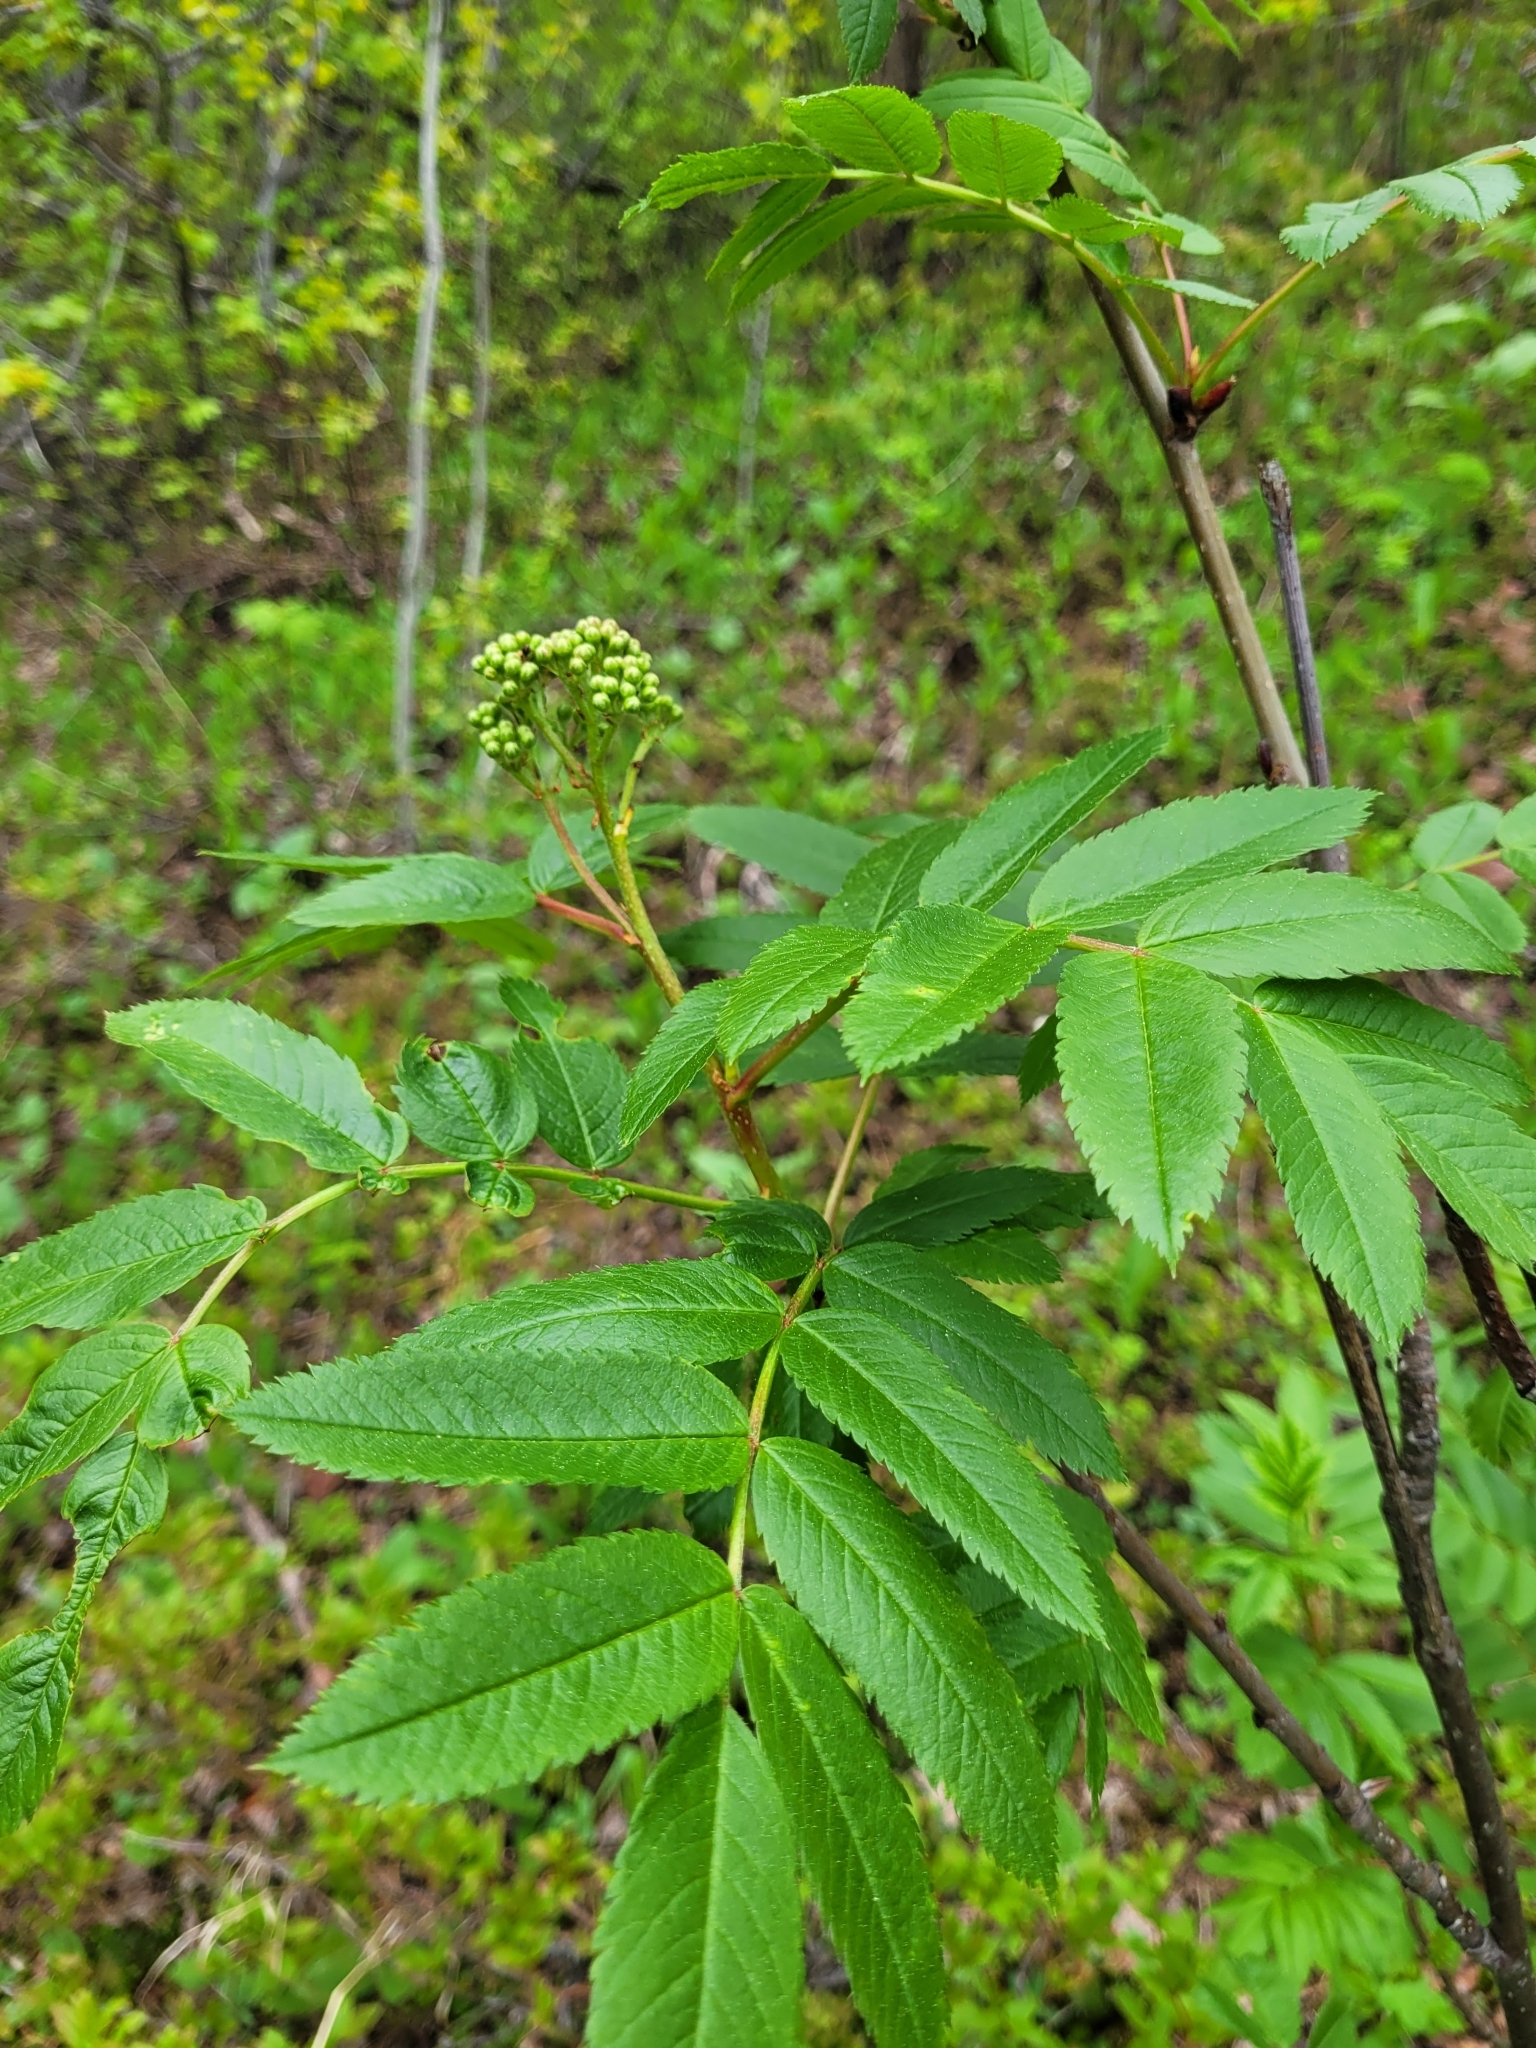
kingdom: Plantae
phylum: Tracheophyta
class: Magnoliopsida
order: Rosales
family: Rosaceae
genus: Sorbus
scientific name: Sorbus scopulina
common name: Greene's mountain-ash
